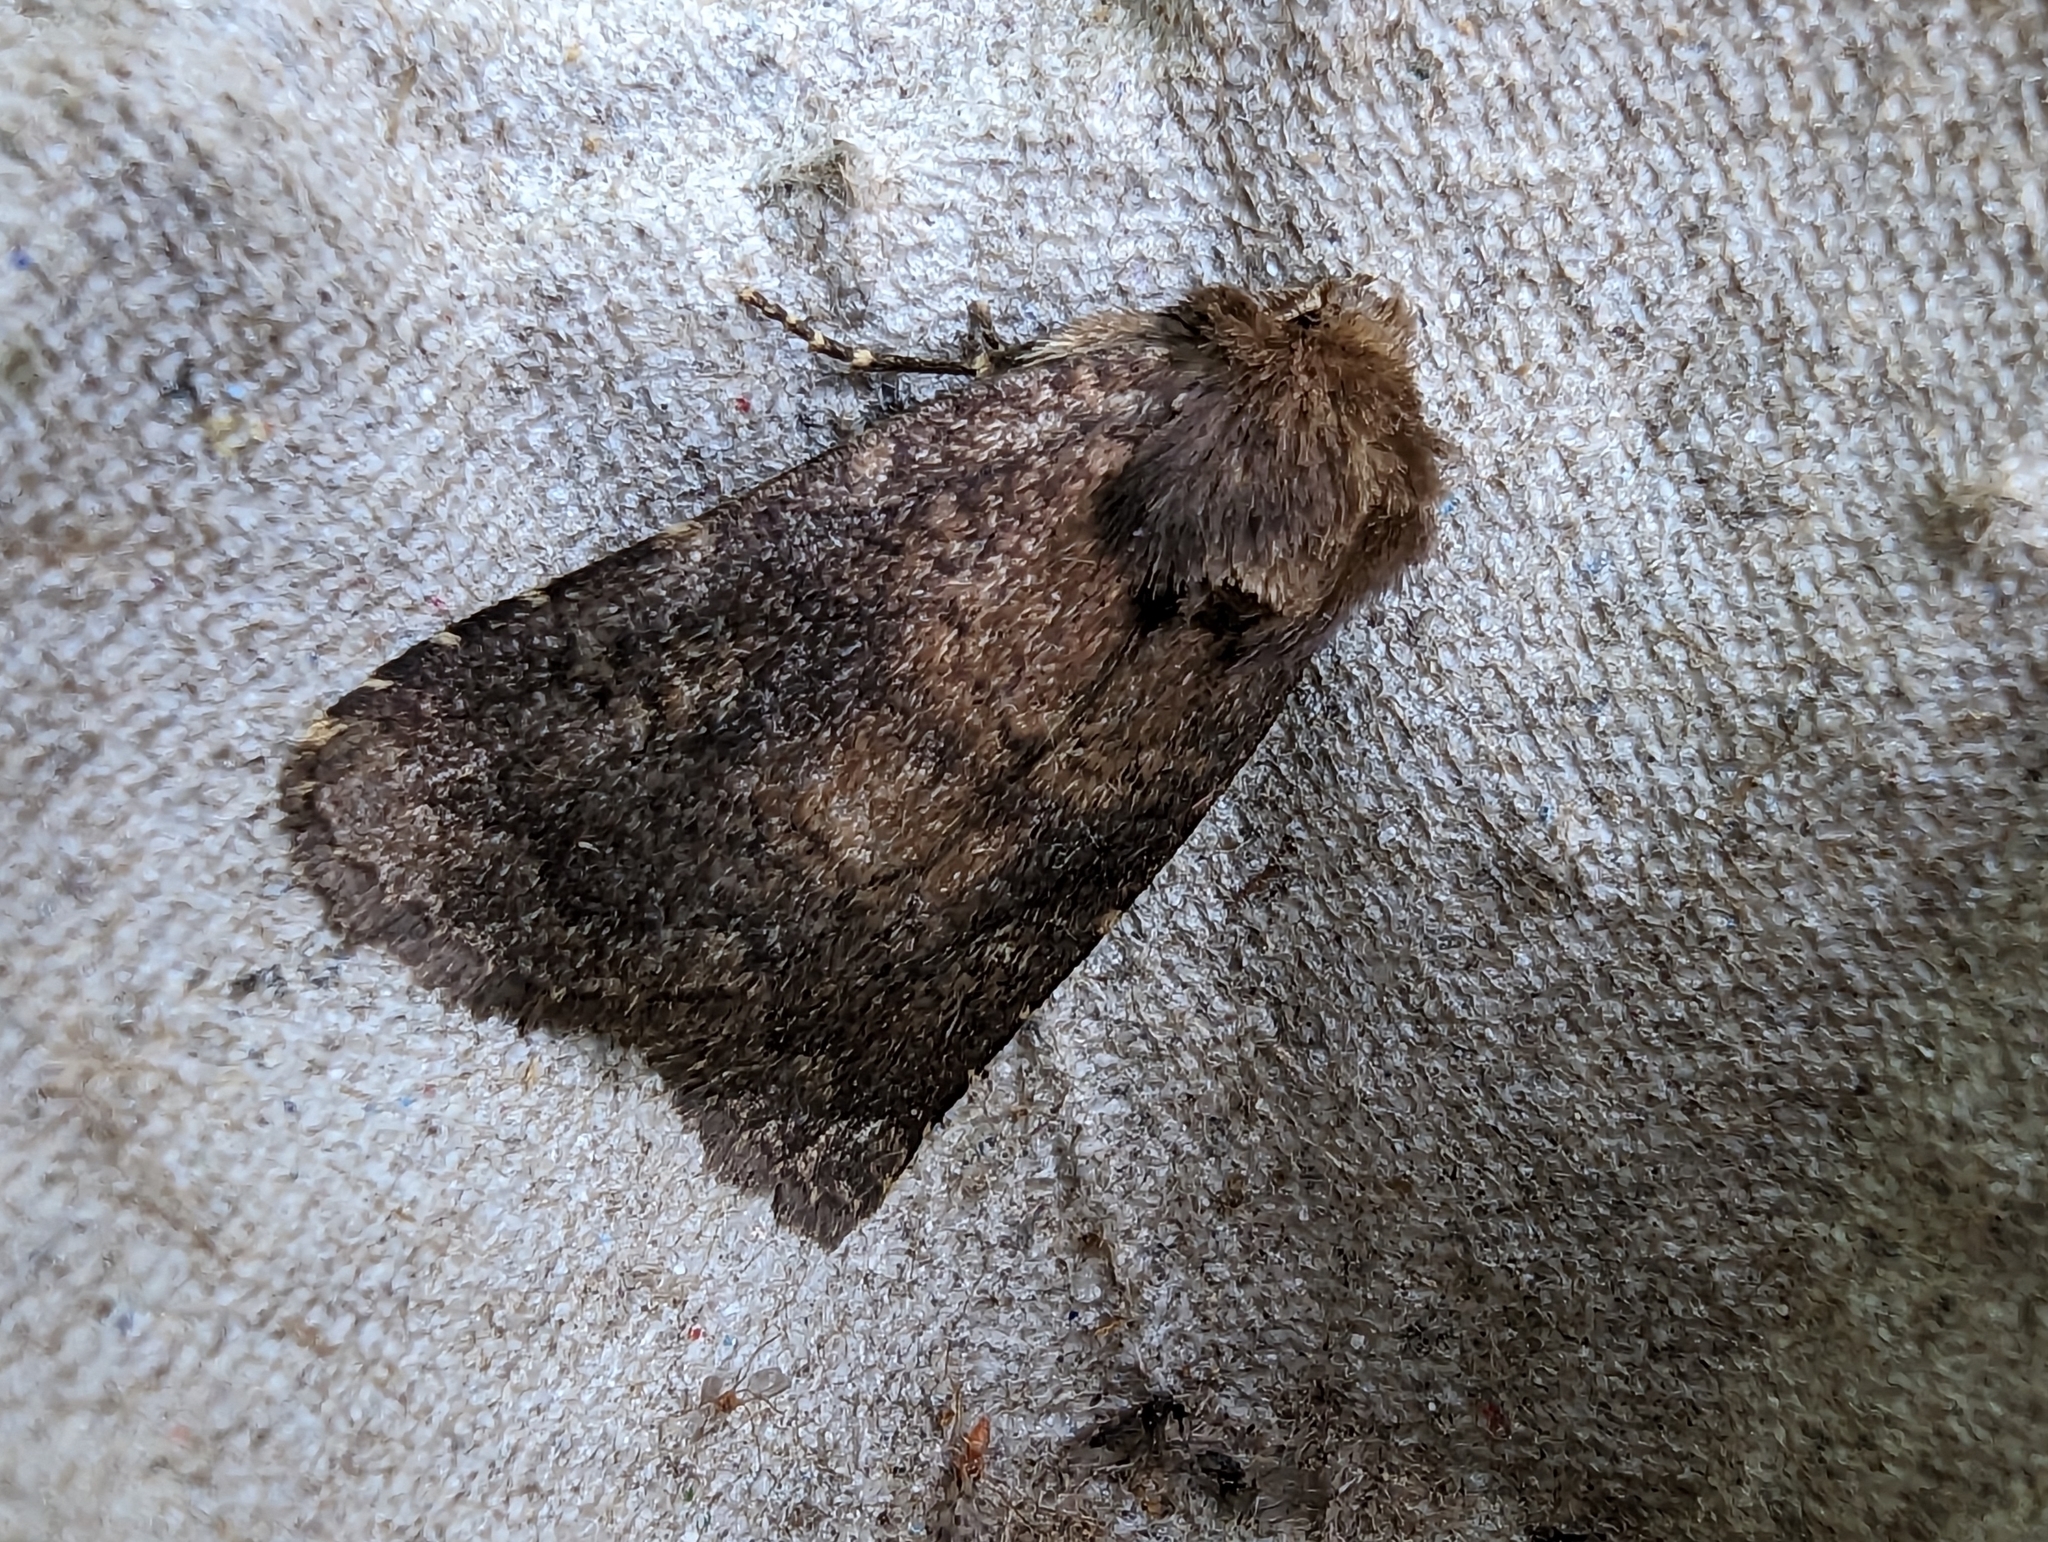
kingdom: Animalia
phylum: Arthropoda
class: Insecta
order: Lepidoptera
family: Noctuidae
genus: Charanyca
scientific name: Charanyca ferruginea
